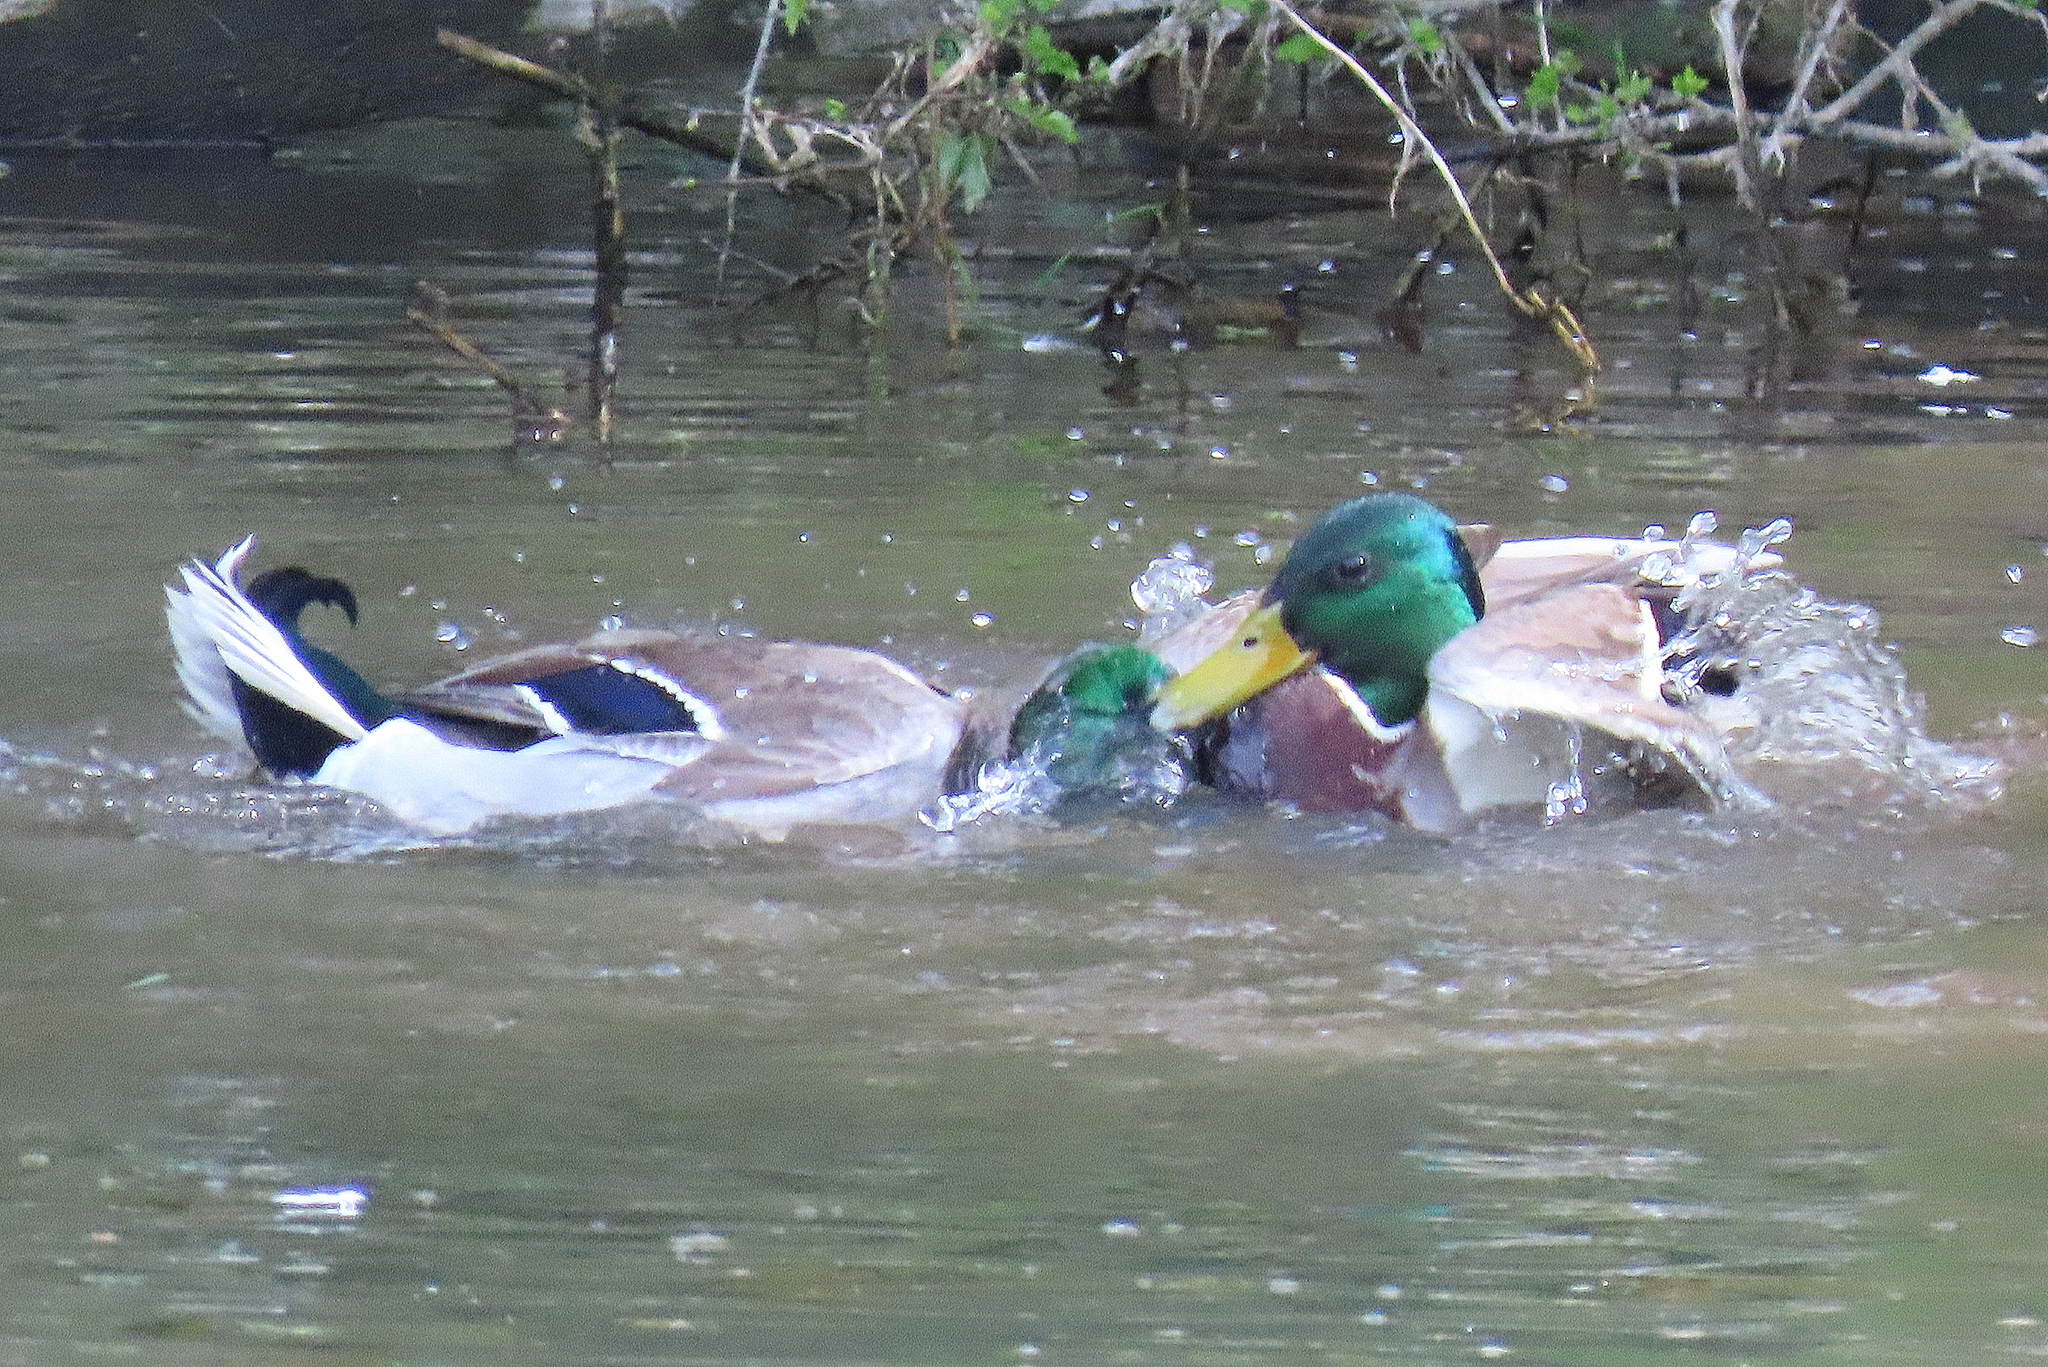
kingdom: Animalia
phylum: Chordata
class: Aves
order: Anseriformes
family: Anatidae
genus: Anas
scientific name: Anas platyrhynchos
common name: Mallard
